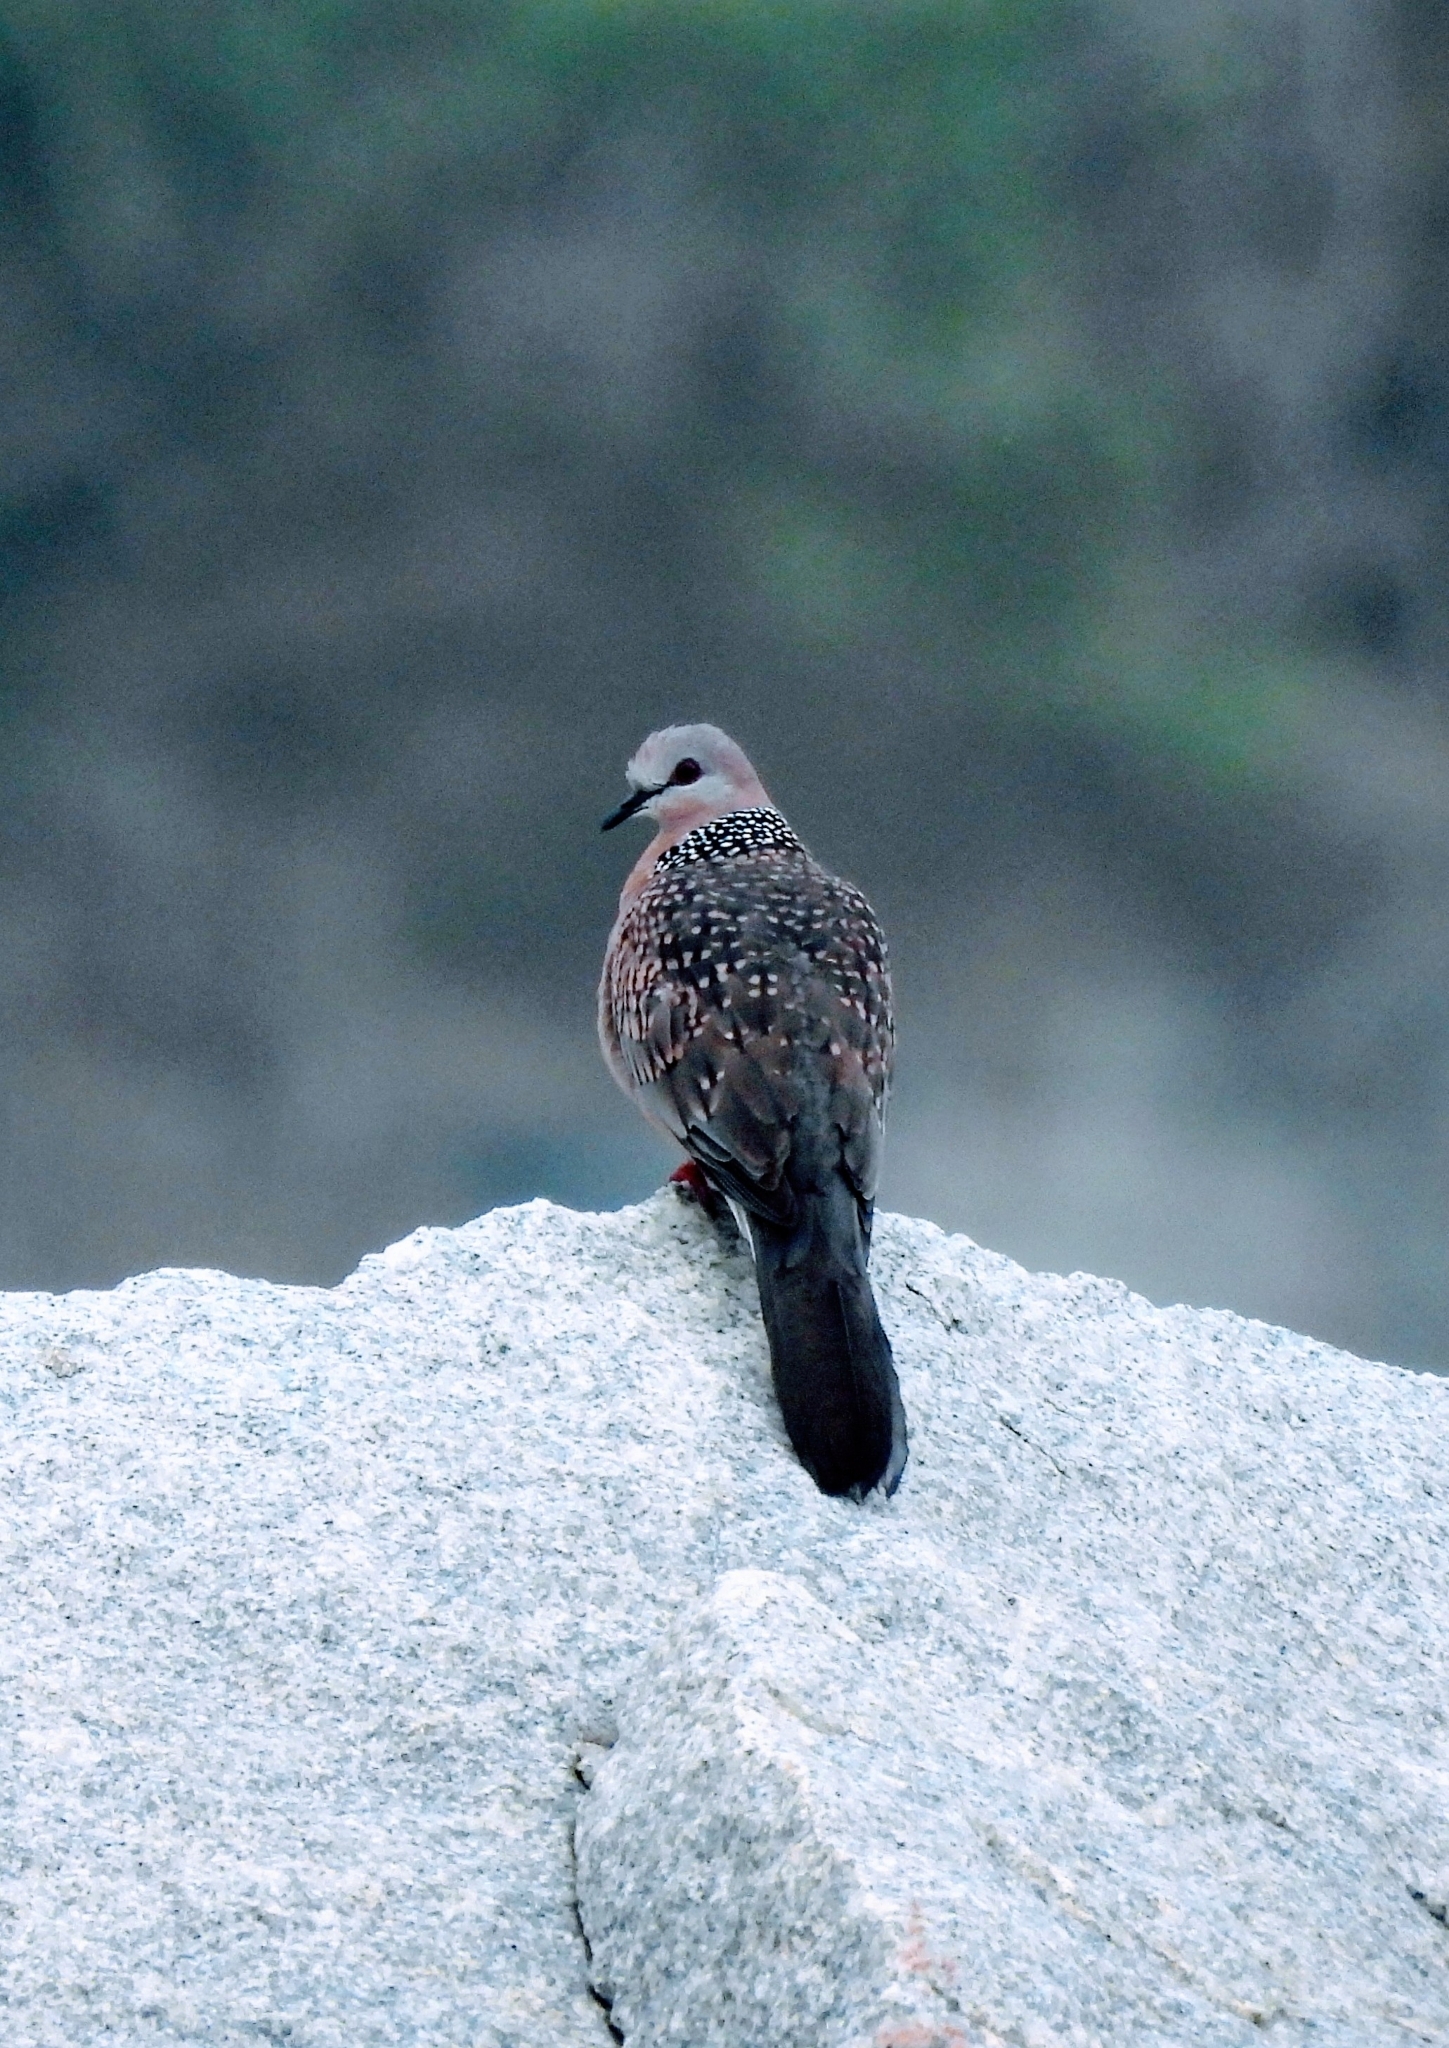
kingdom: Animalia
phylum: Chordata
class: Aves
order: Columbiformes
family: Columbidae
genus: Spilopelia
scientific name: Spilopelia chinensis
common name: Spotted dove
